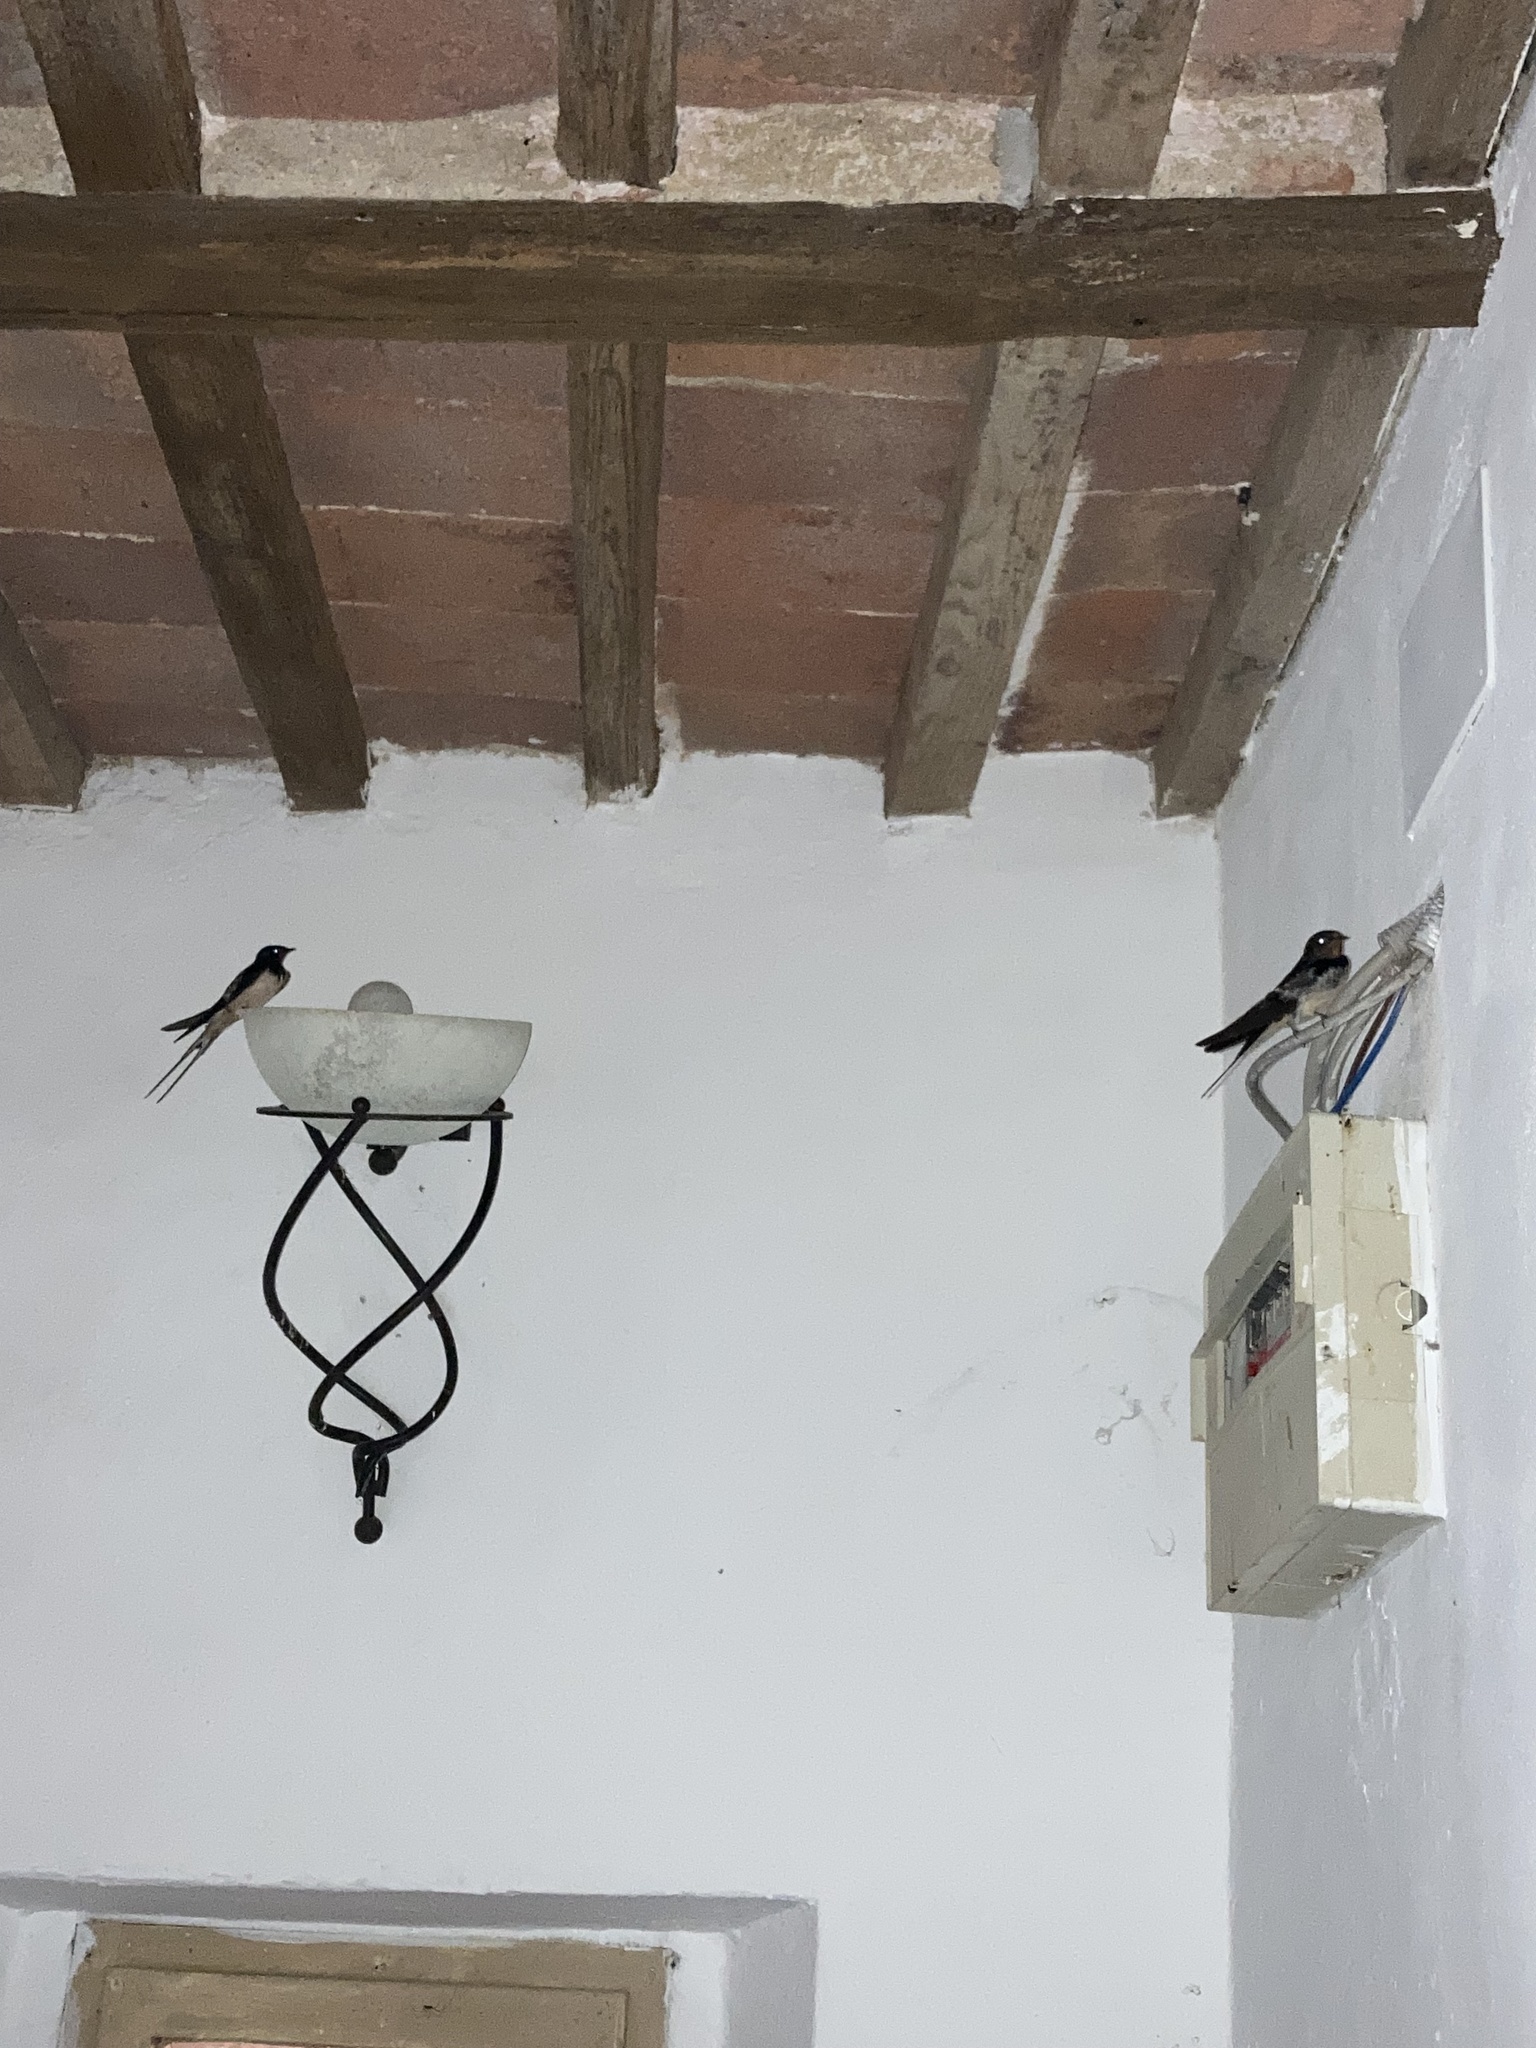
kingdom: Animalia
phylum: Chordata
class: Aves
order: Passeriformes
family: Hirundinidae
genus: Hirundo
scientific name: Hirundo rustica
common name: Barn swallow
